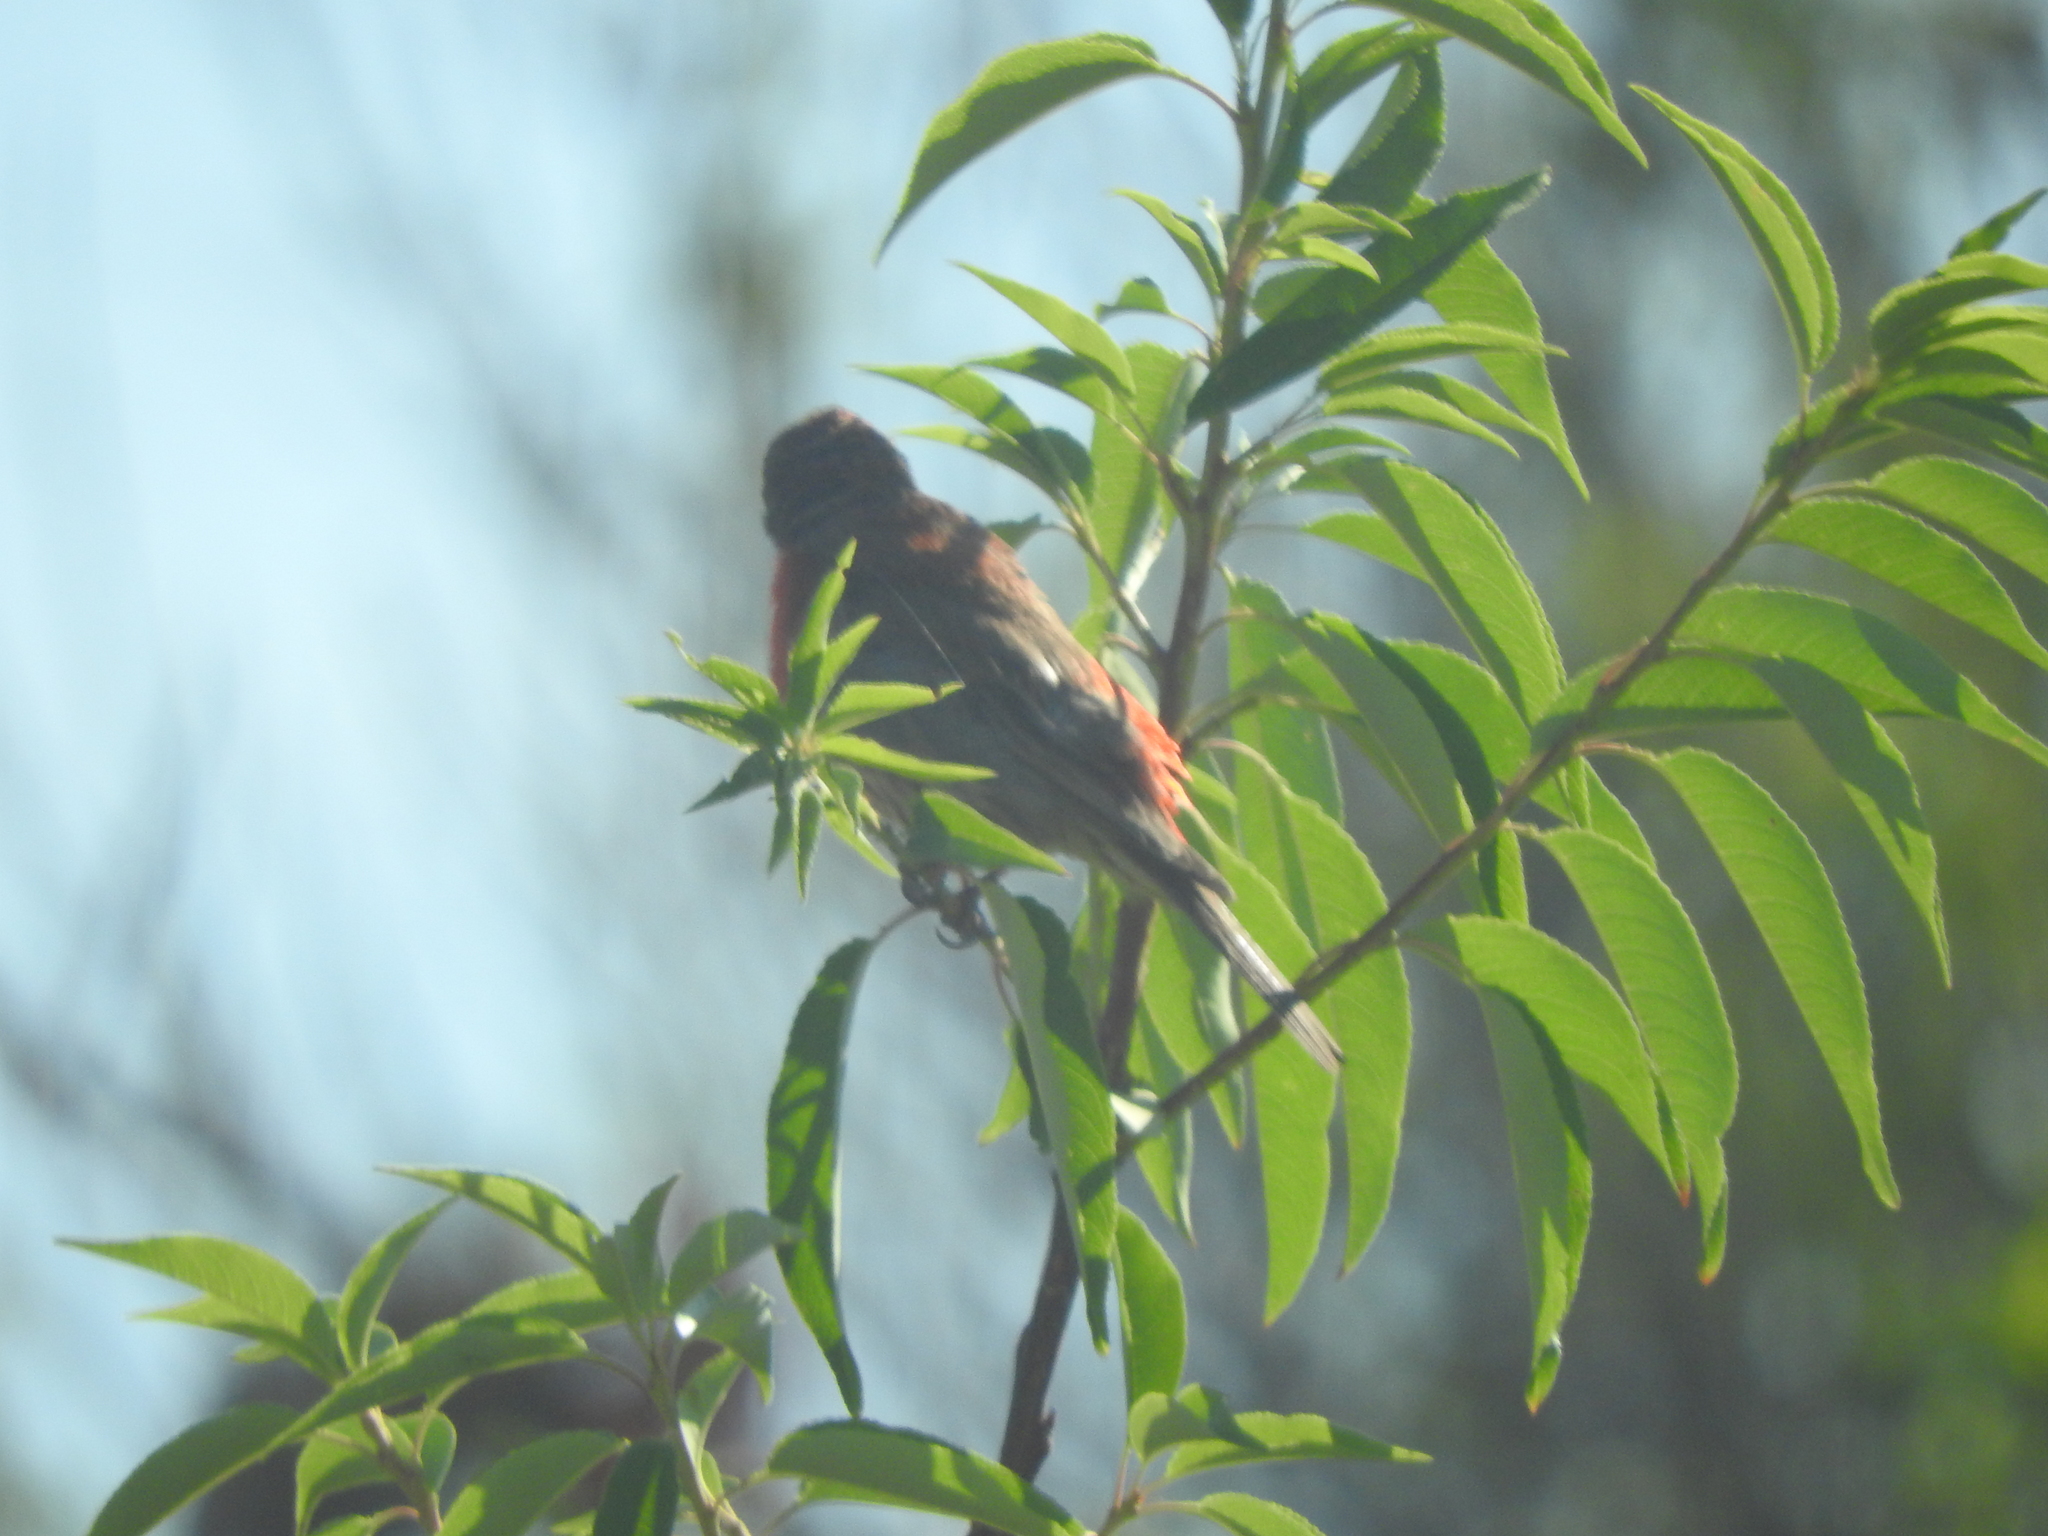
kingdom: Animalia
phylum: Chordata
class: Aves
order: Passeriformes
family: Fringillidae
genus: Haemorhous
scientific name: Haemorhous mexicanus
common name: House finch
